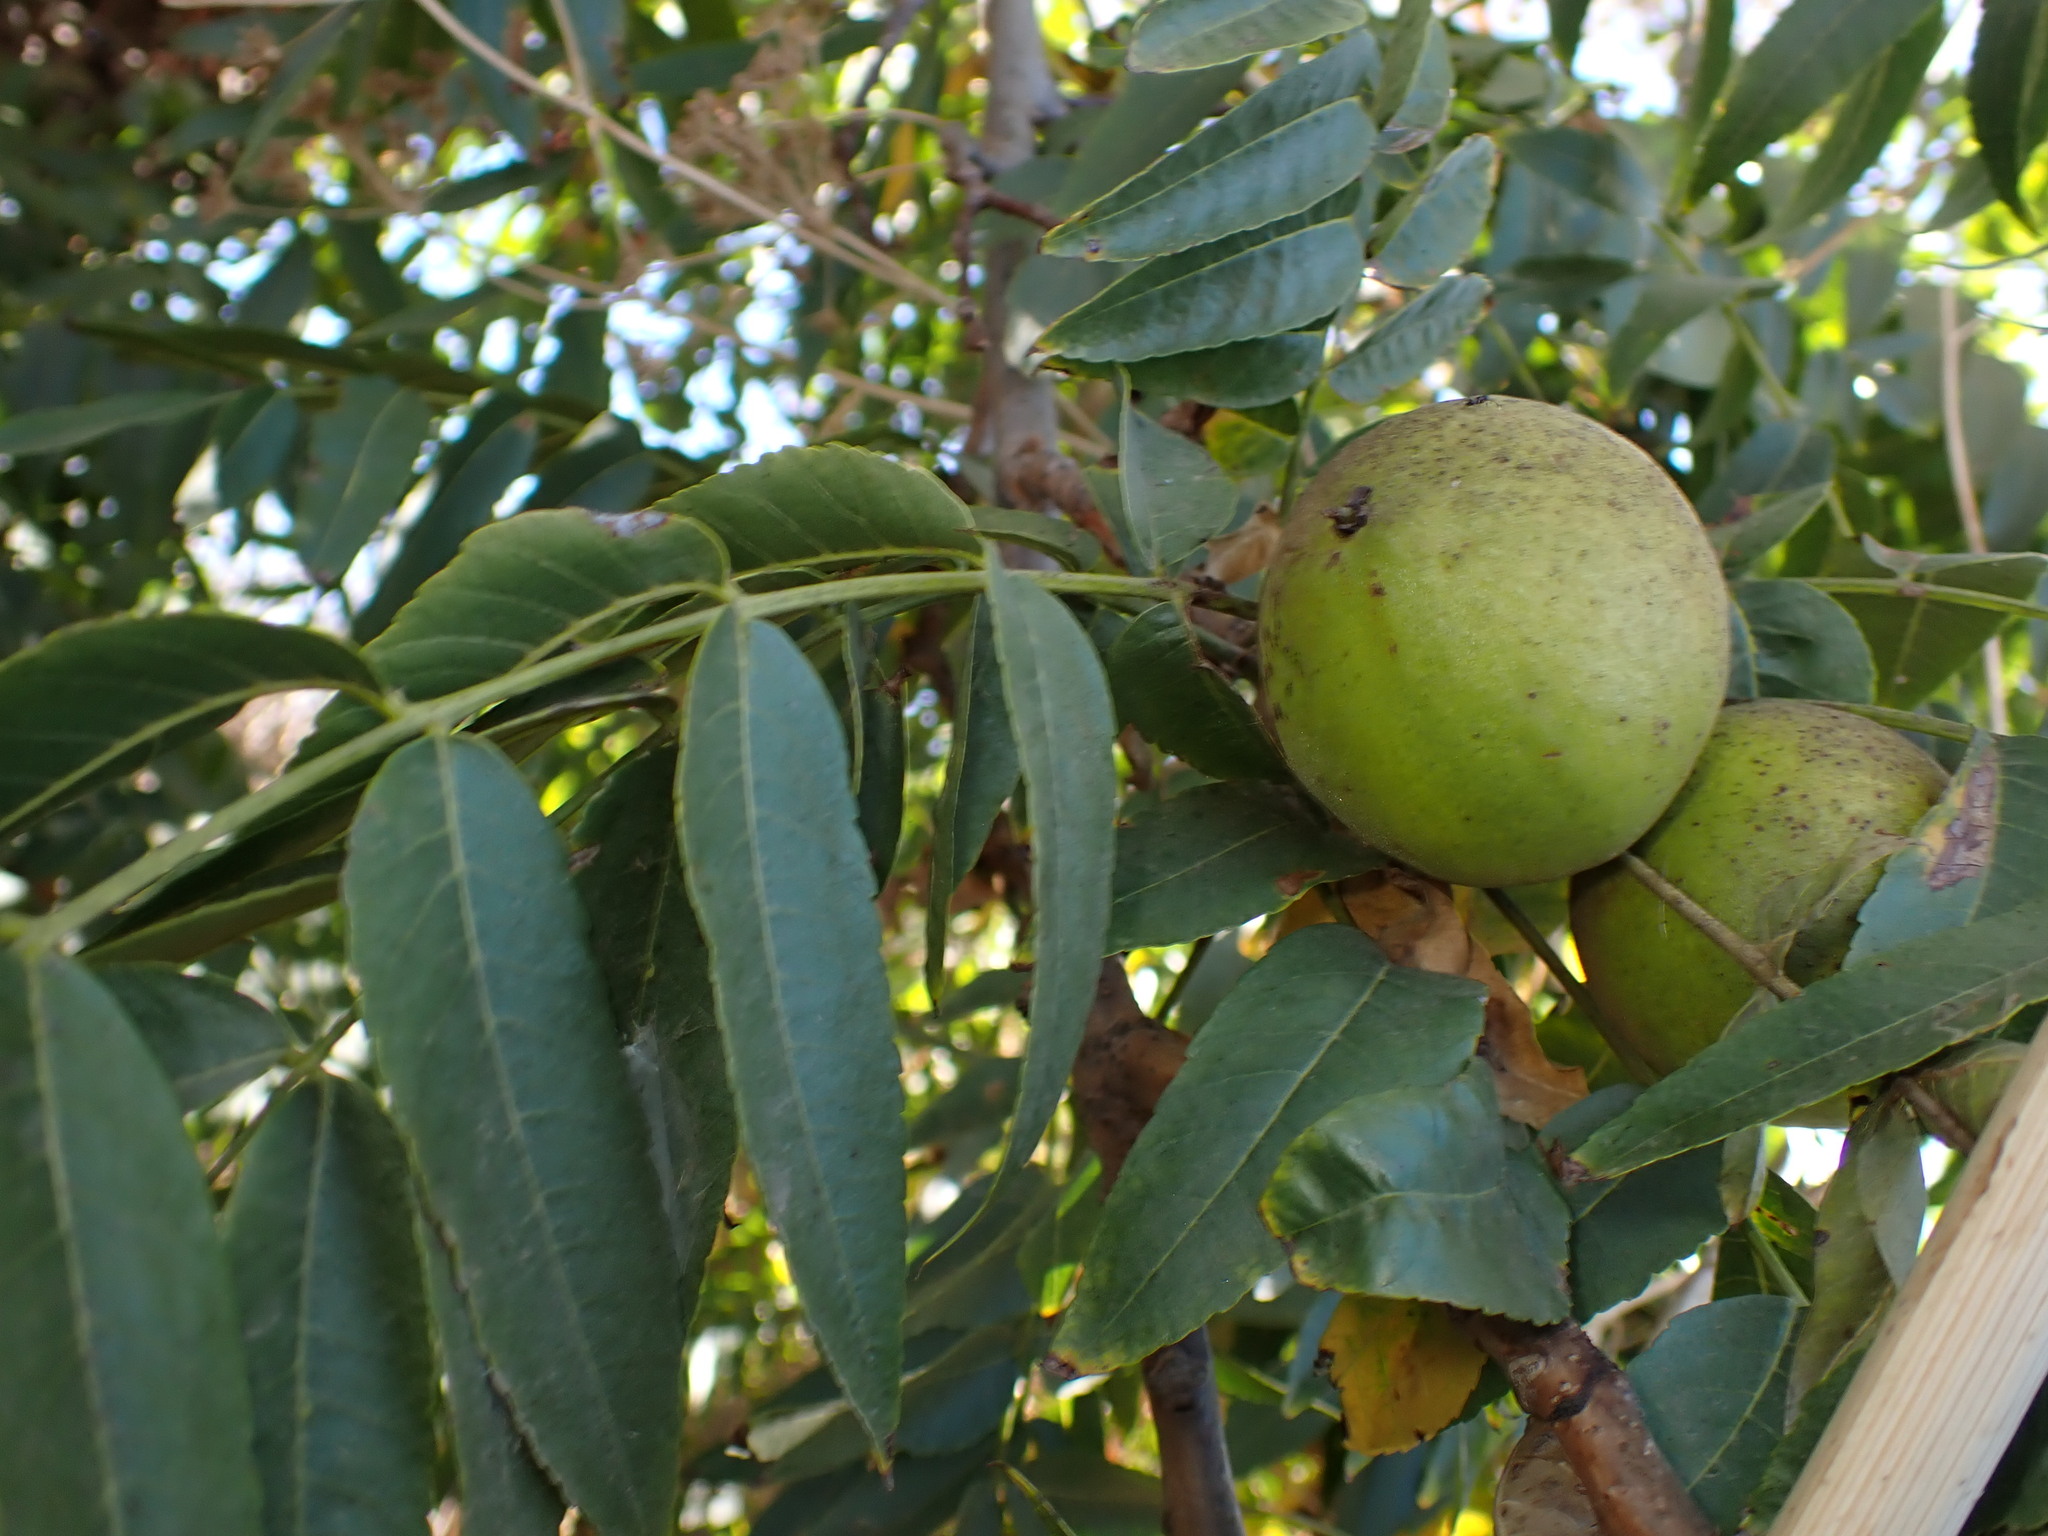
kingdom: Animalia
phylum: Arthropoda
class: Insecta
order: Lepidoptera
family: Nepticulidae
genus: Stigmella
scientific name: Stigmella longisacca
